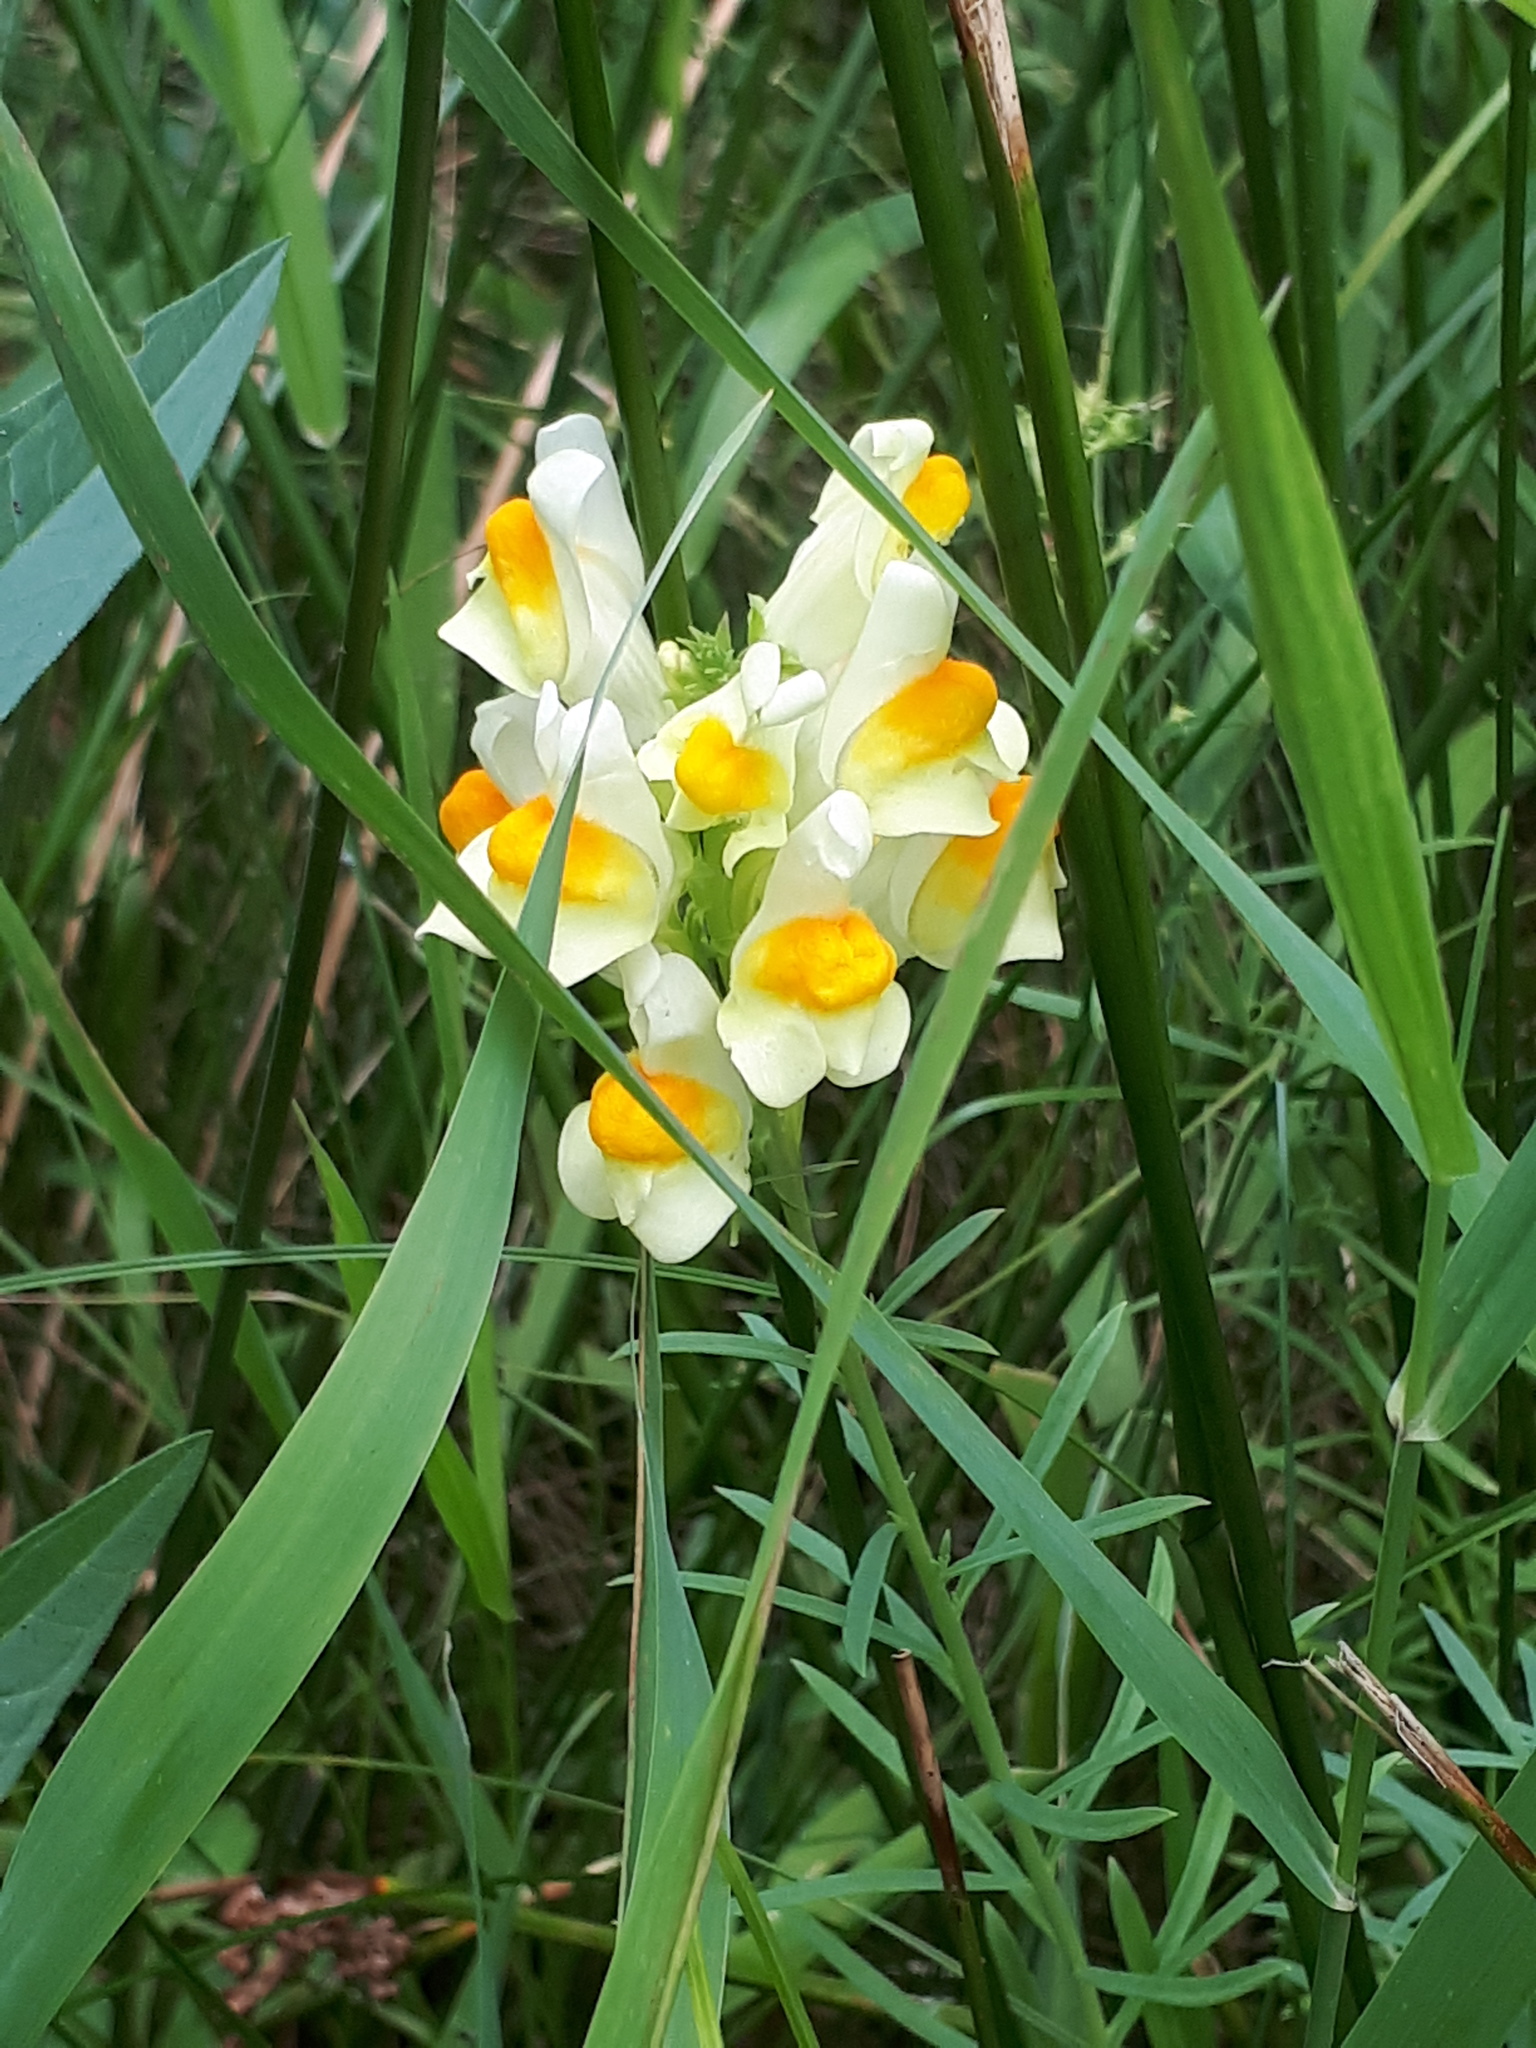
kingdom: Plantae
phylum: Tracheophyta
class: Magnoliopsida
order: Lamiales
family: Plantaginaceae
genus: Linaria
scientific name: Linaria vulgaris
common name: Butter and eggs
